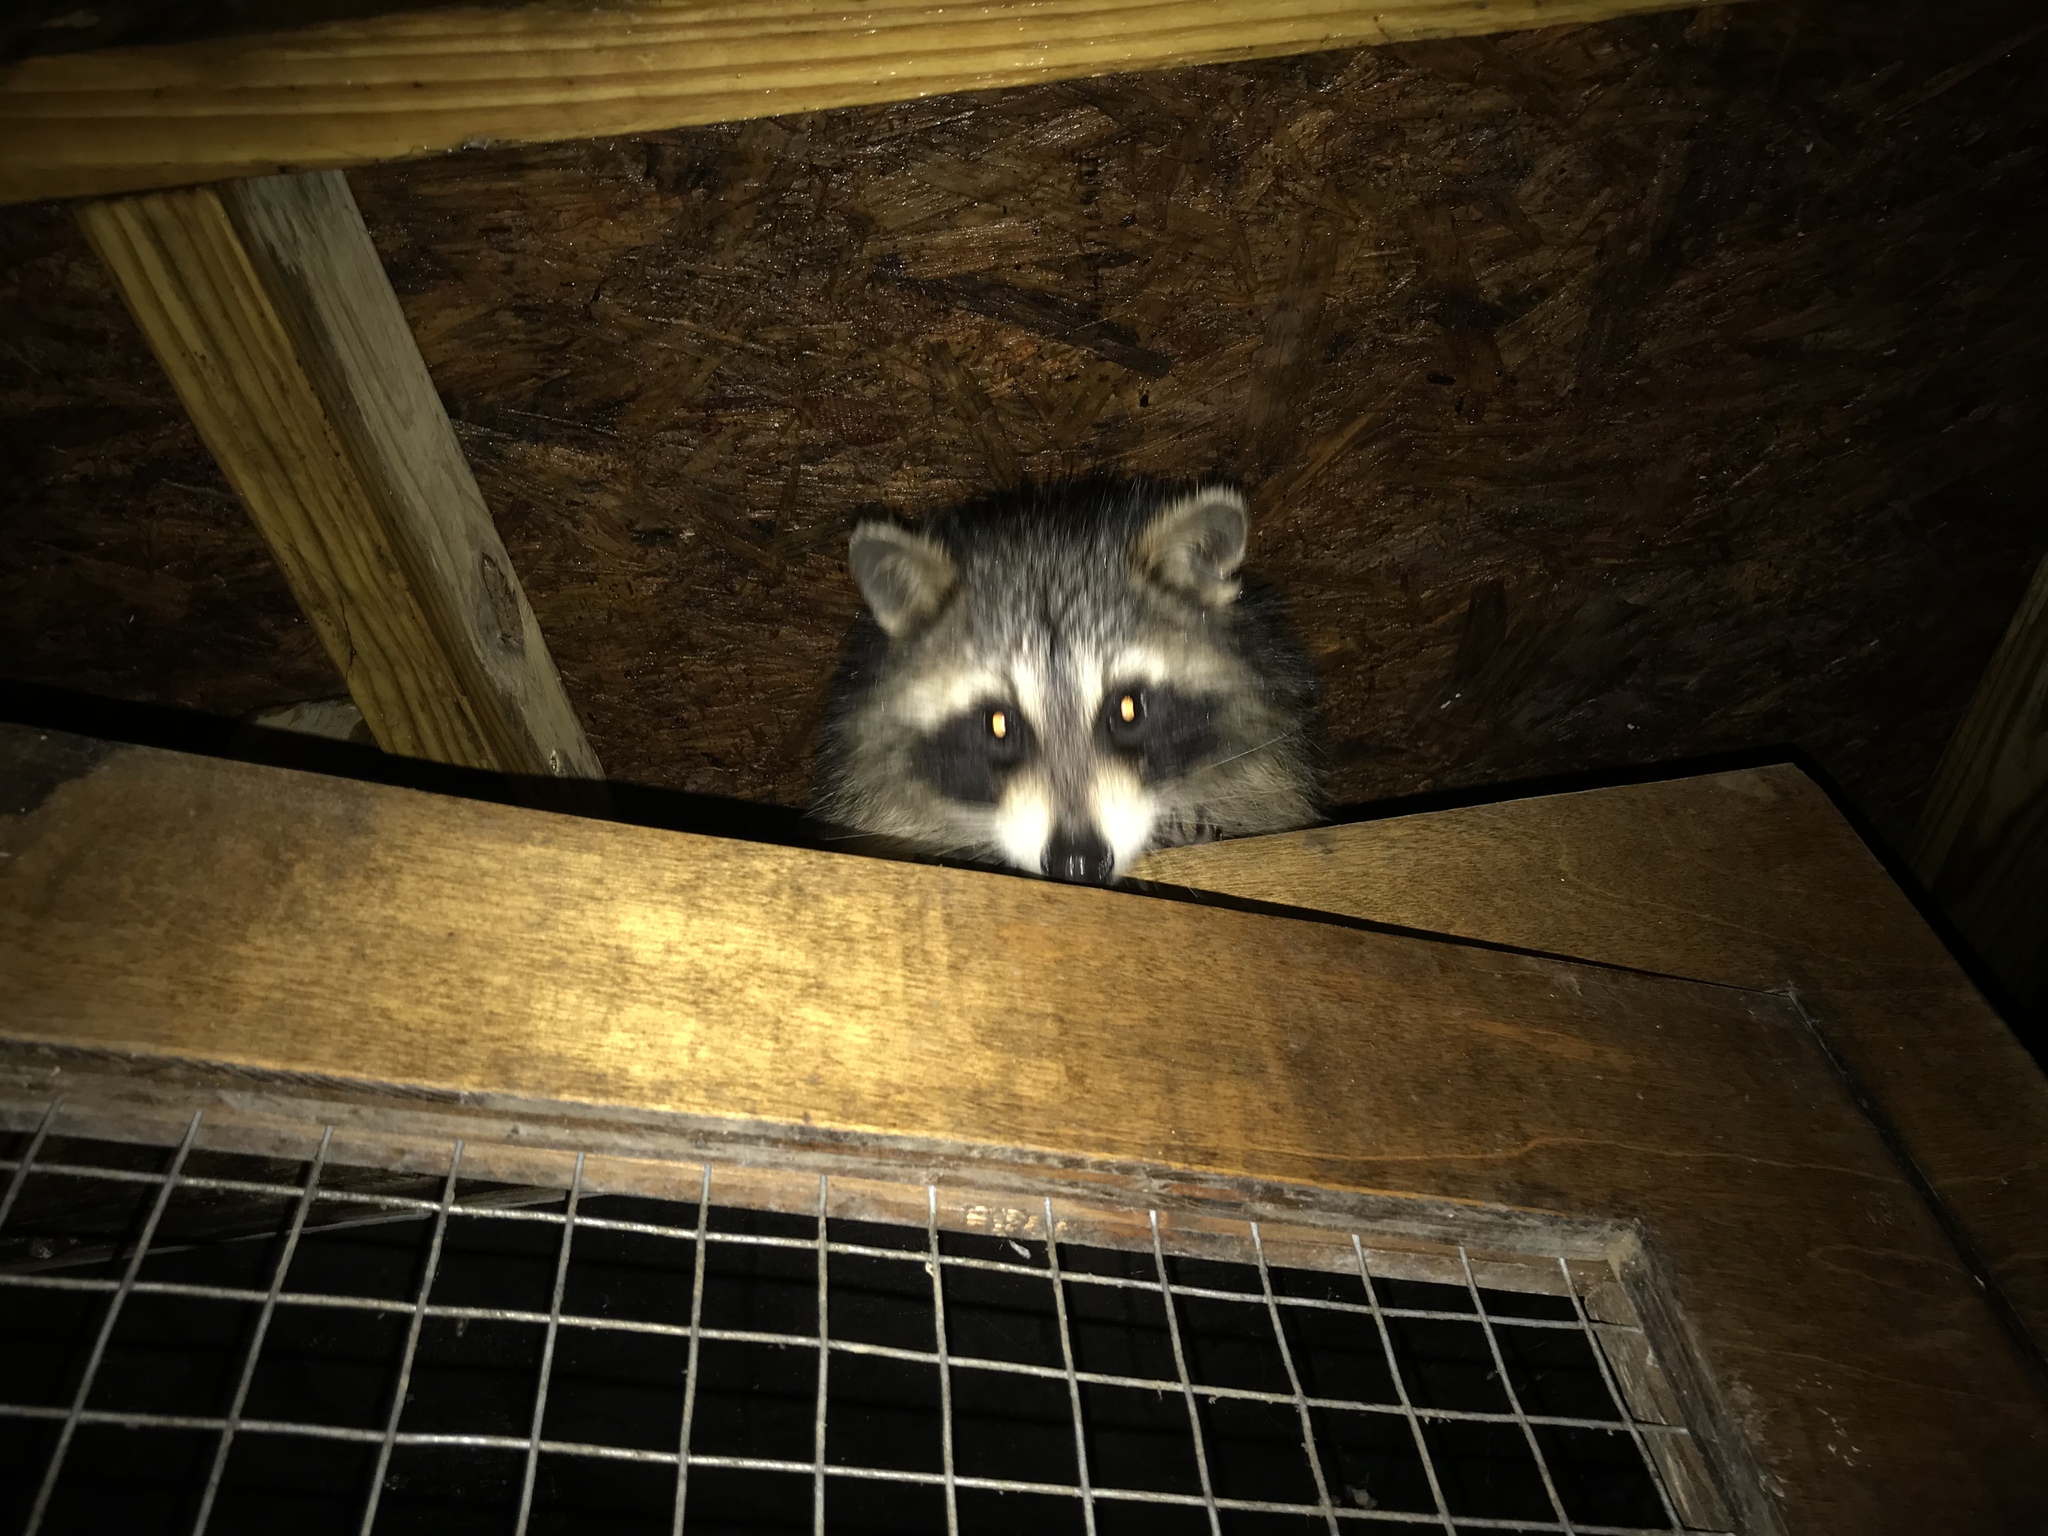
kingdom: Animalia
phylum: Chordata
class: Mammalia
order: Carnivora
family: Procyonidae
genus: Procyon
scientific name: Procyon lotor
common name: Raccoon
